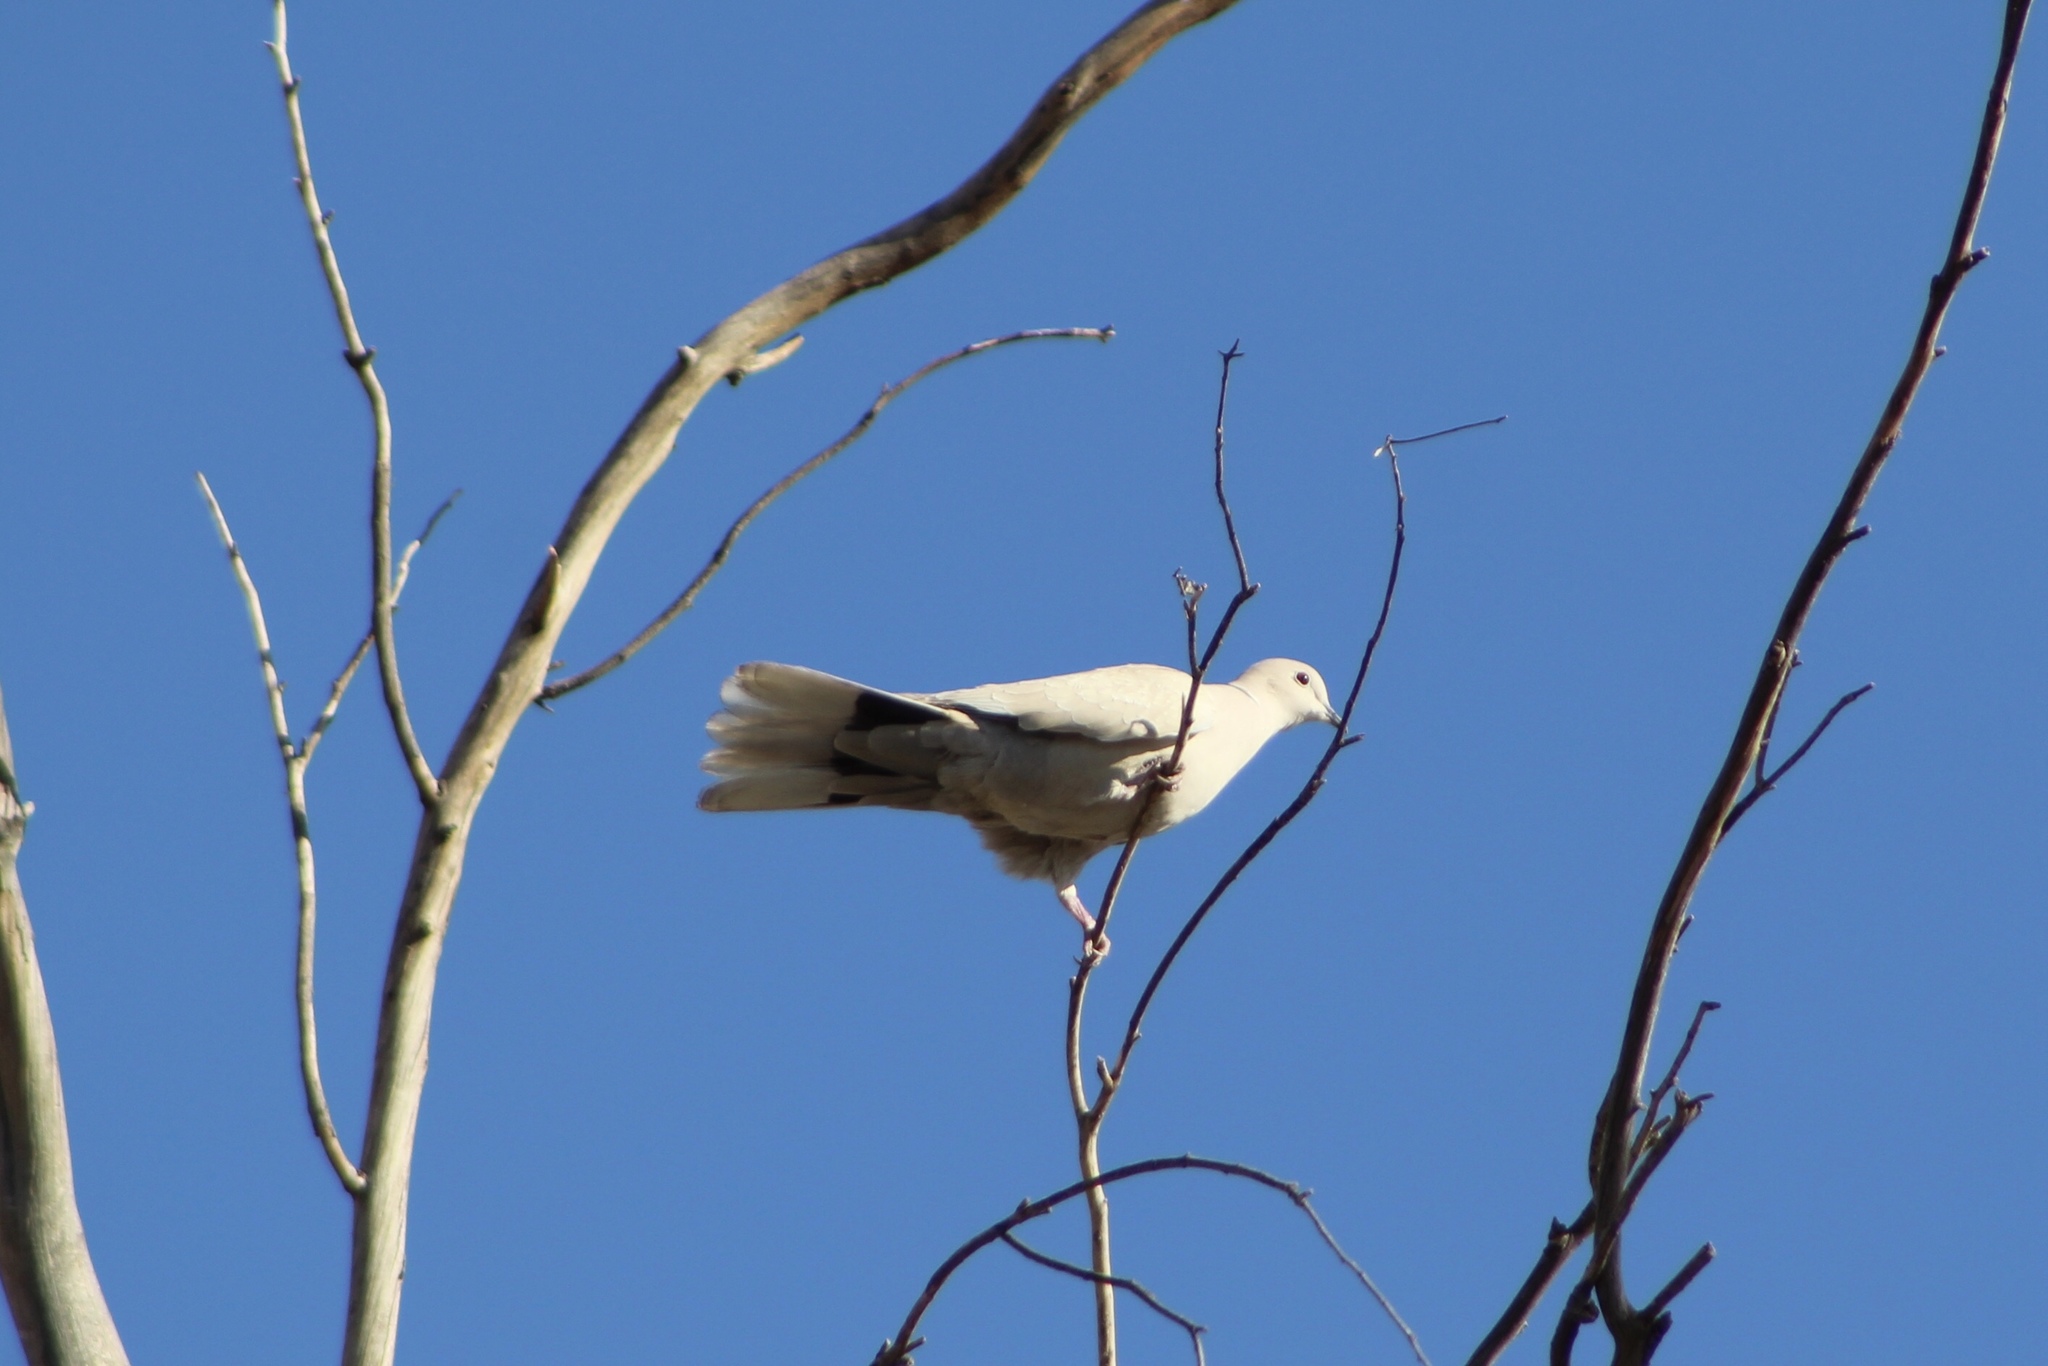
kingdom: Animalia
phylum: Chordata
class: Aves
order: Columbiformes
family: Columbidae
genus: Streptopelia
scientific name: Streptopelia decaocto
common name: Eurasian collared dove
